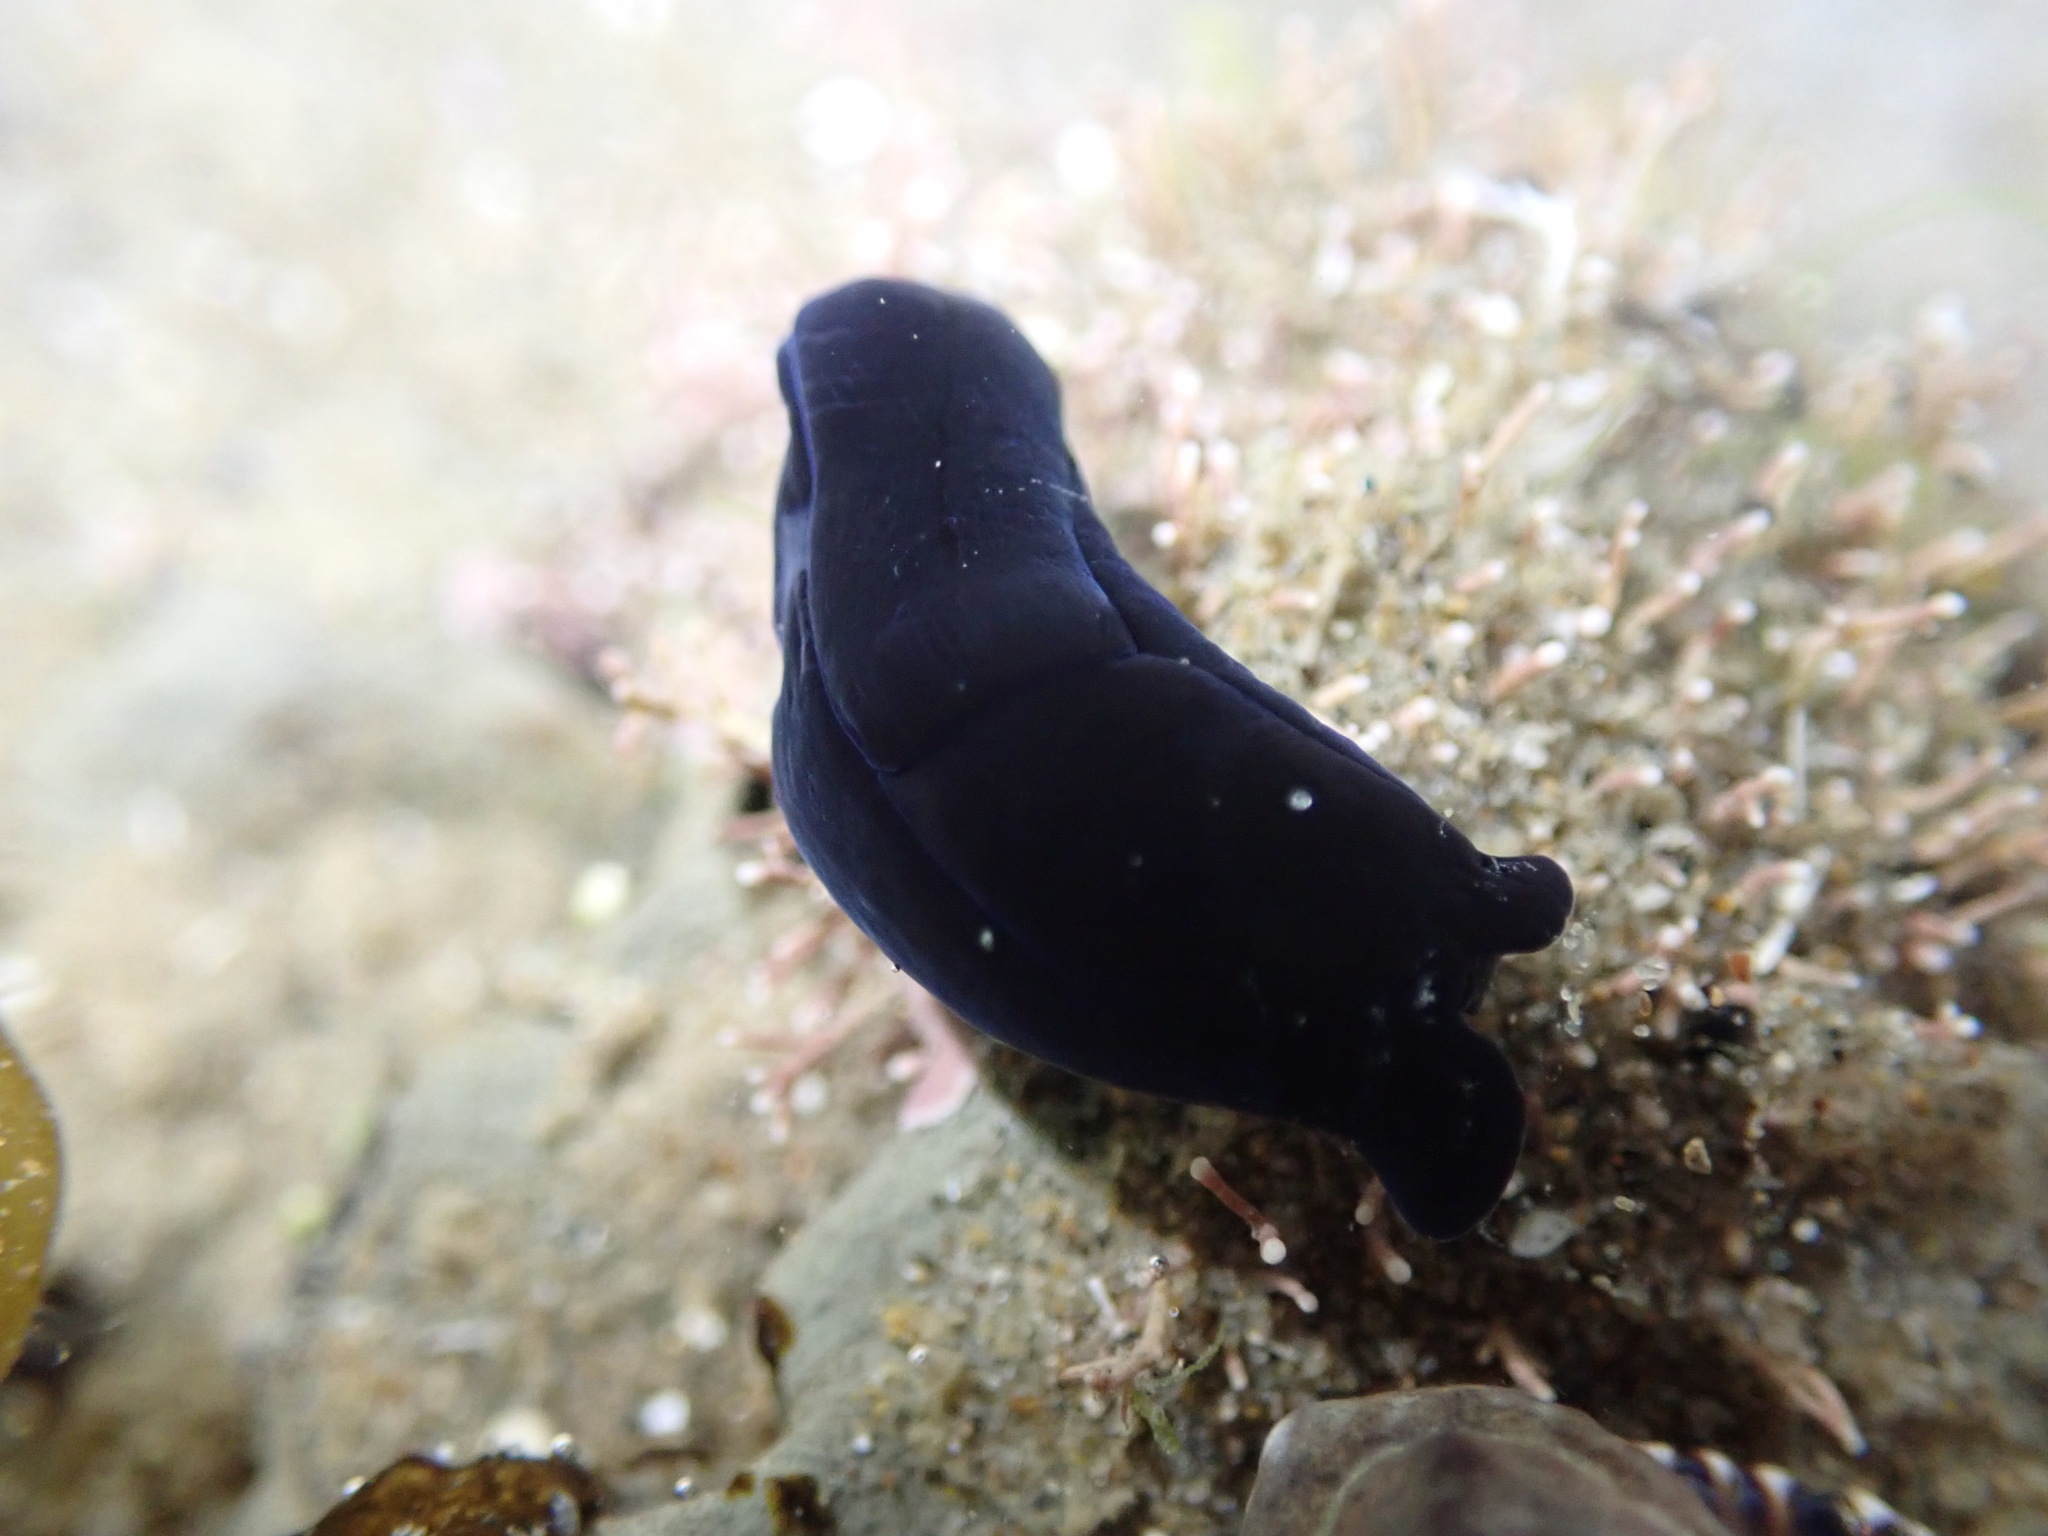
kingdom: Animalia
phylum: Mollusca
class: Gastropoda
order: Cephalaspidea
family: Aglajidae
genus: Melanochlamys
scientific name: Melanochlamys cylindrica
